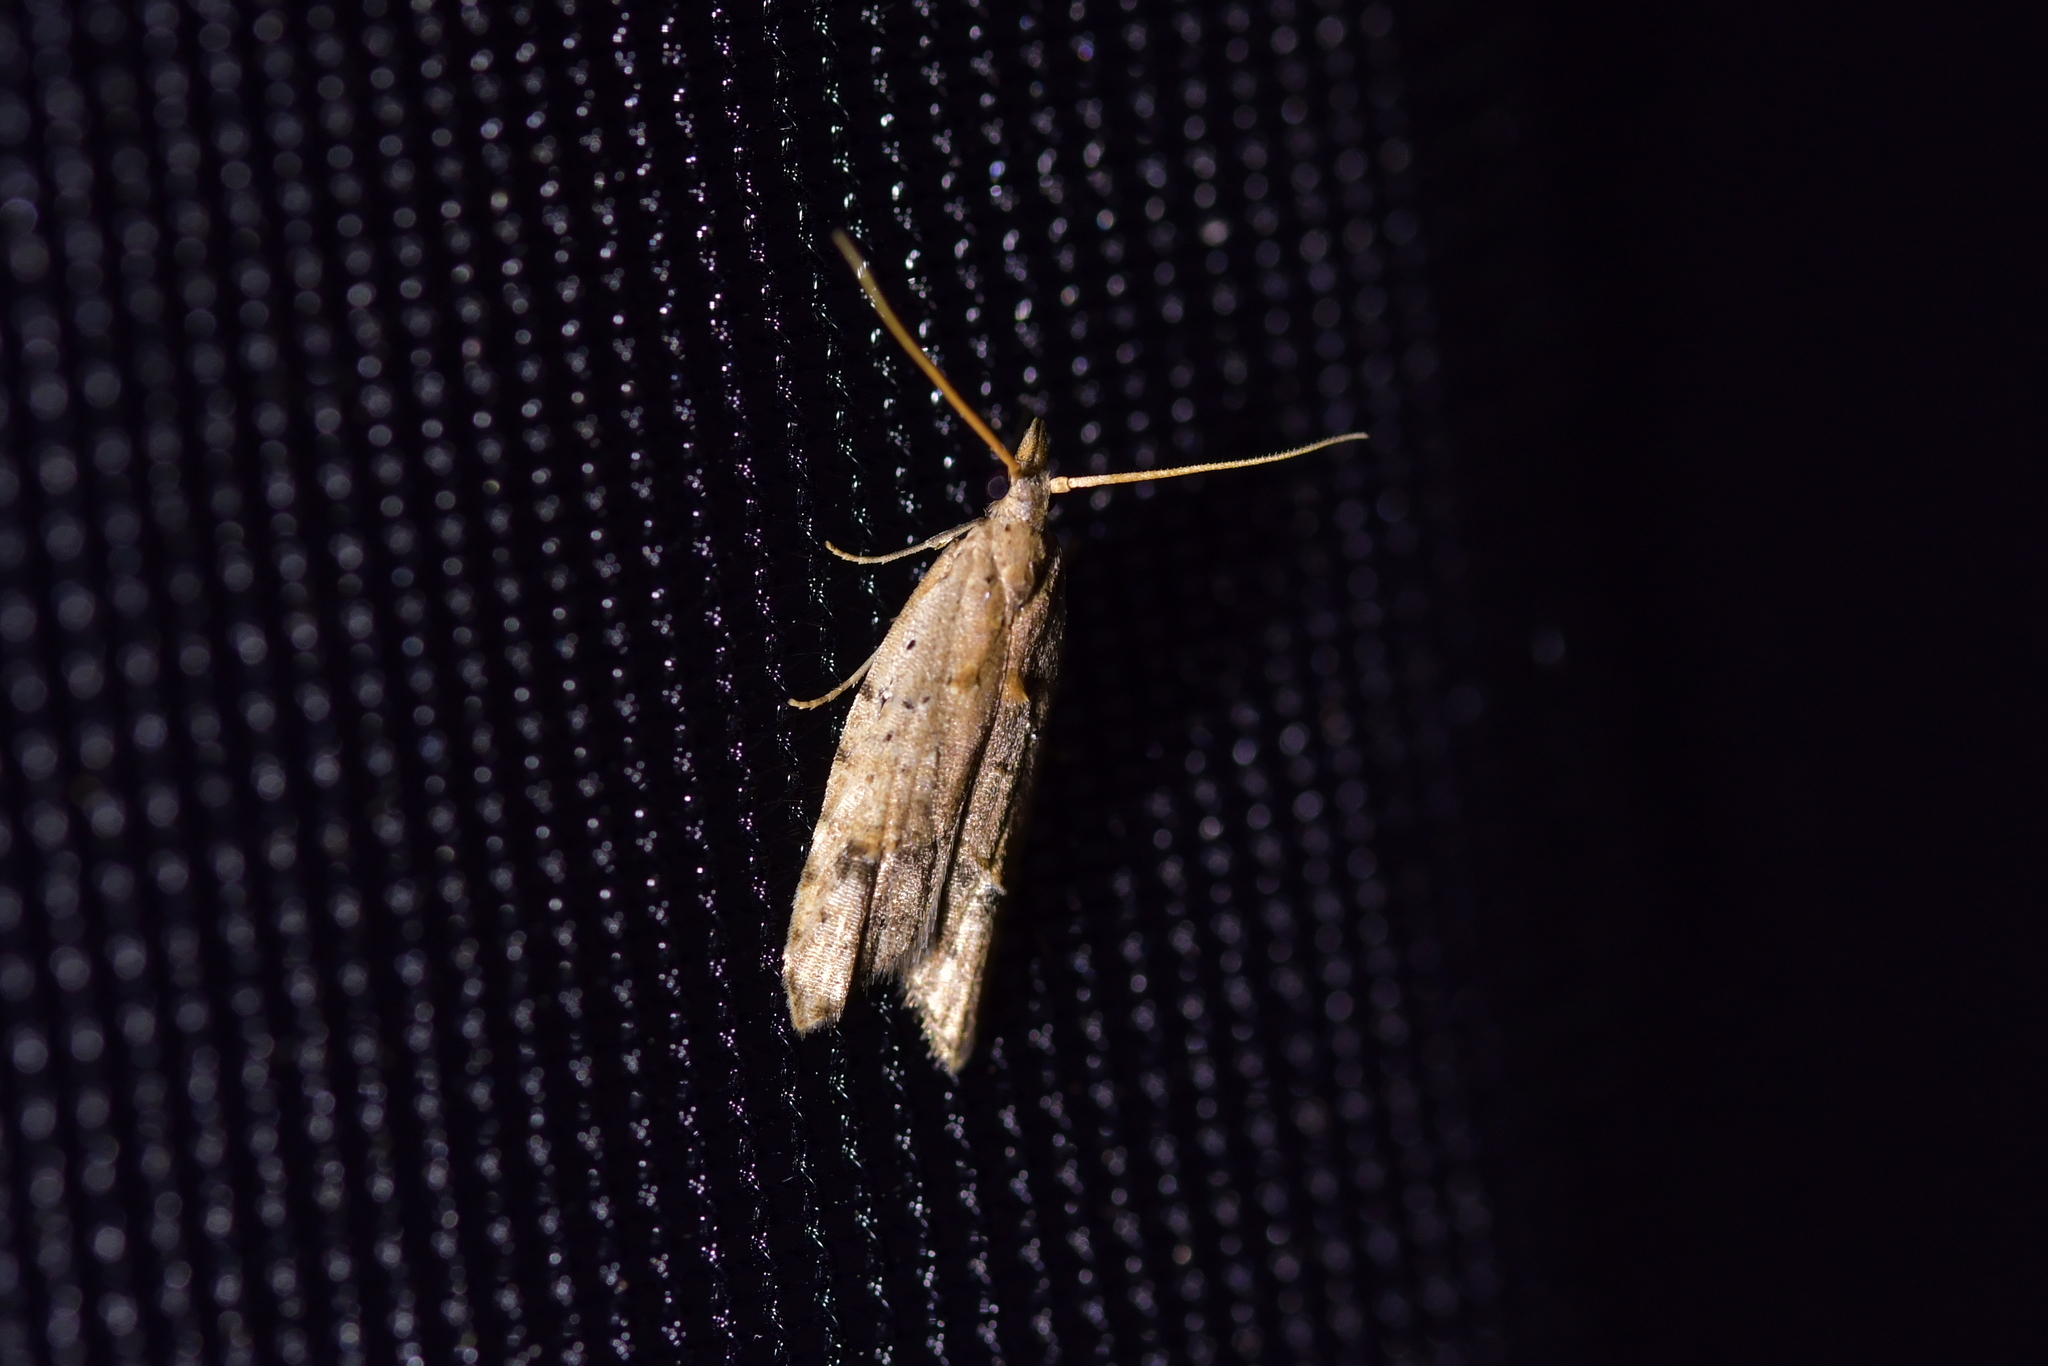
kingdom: Animalia
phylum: Arthropoda
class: Insecta
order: Lepidoptera
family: Carposinidae
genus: Carposina
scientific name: Carposina rubophaga
